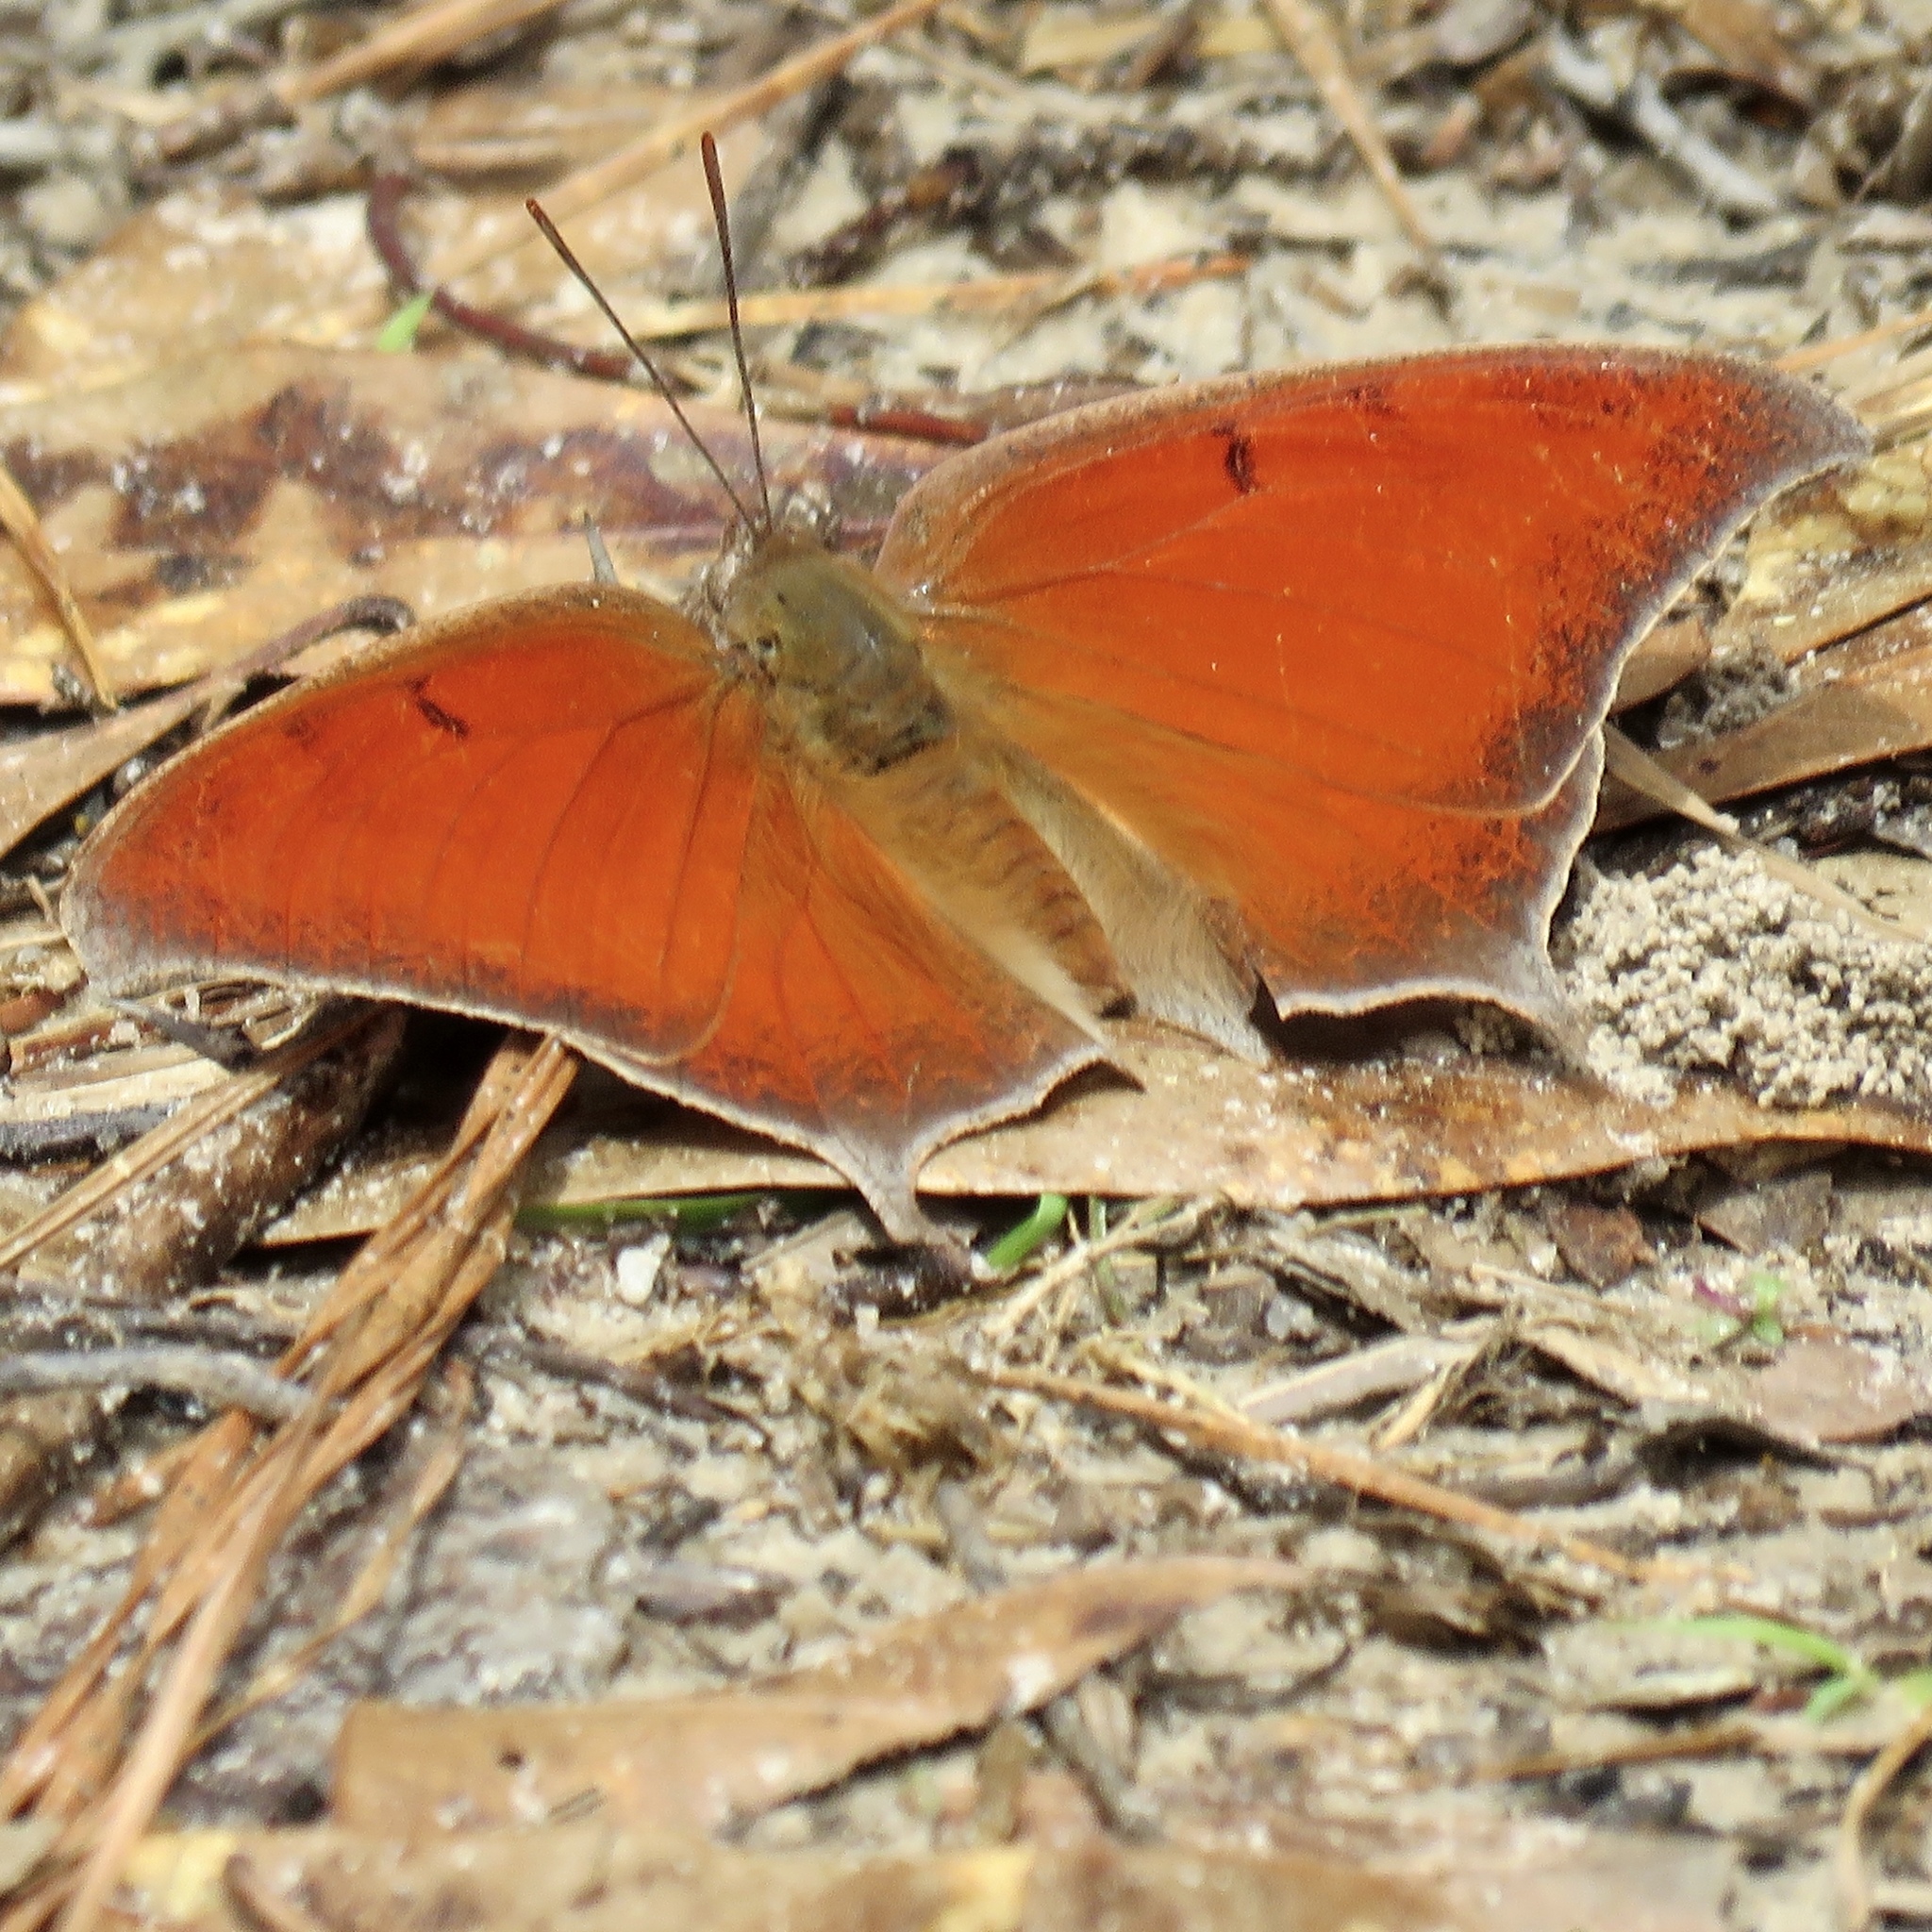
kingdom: Animalia
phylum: Arthropoda
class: Insecta
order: Lepidoptera
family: Nymphalidae
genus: Anaea
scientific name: Anaea andria
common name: Goatweed leafwing
